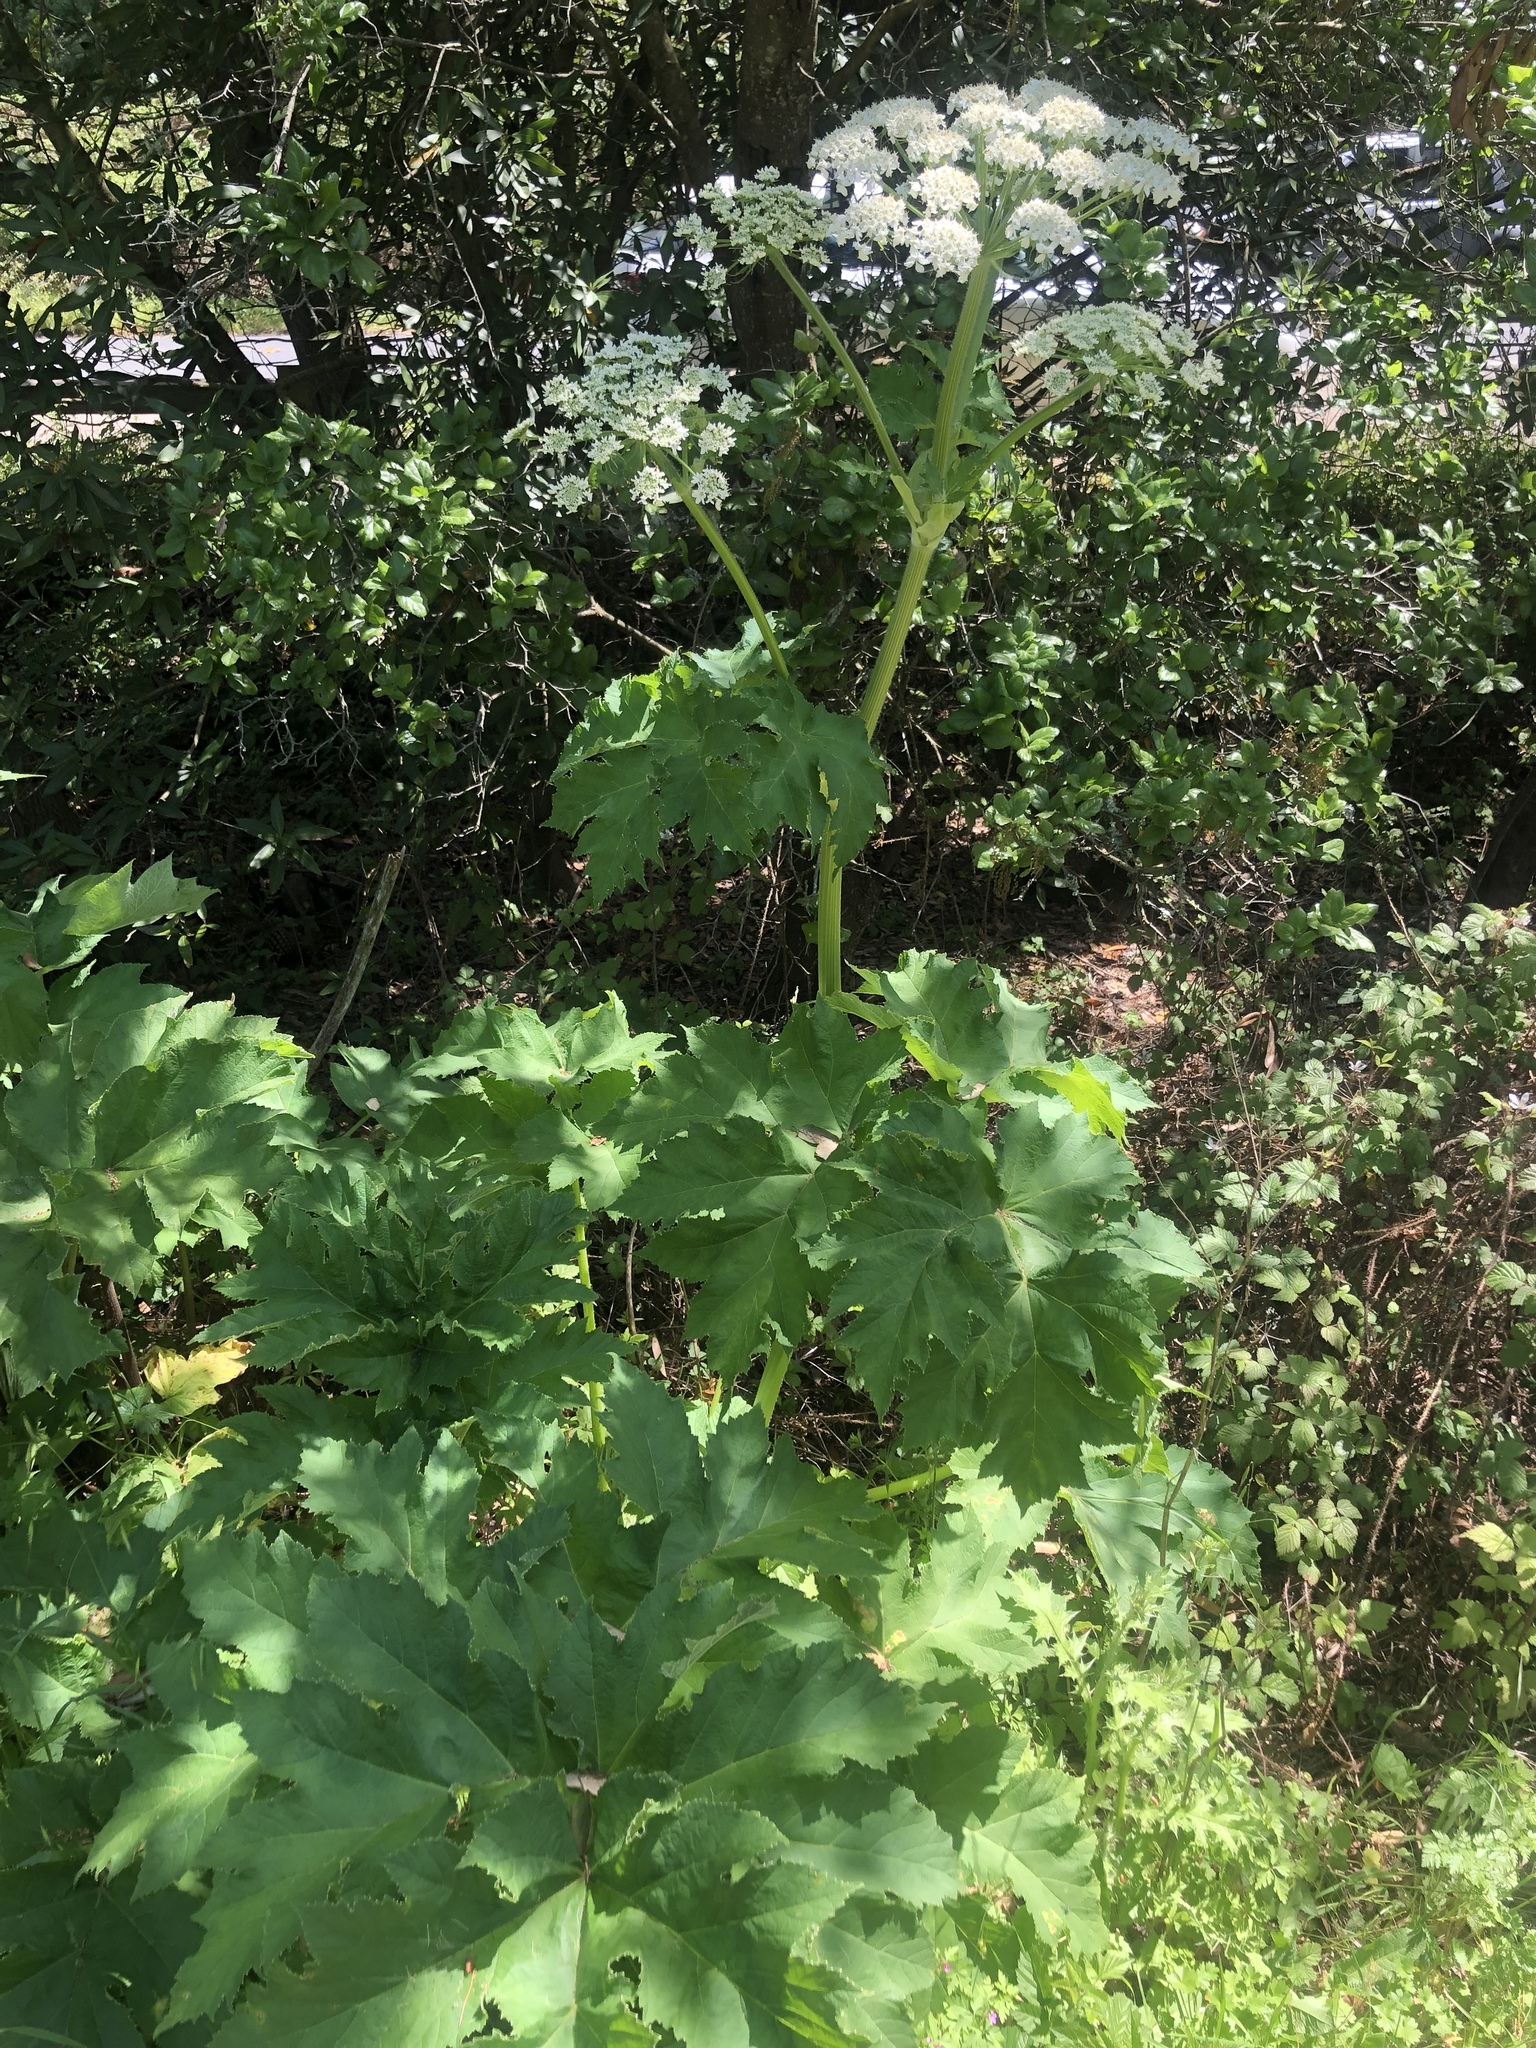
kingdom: Plantae
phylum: Tracheophyta
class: Magnoliopsida
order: Apiales
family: Apiaceae
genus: Heracleum
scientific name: Heracleum maximum
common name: American cow parsnip
